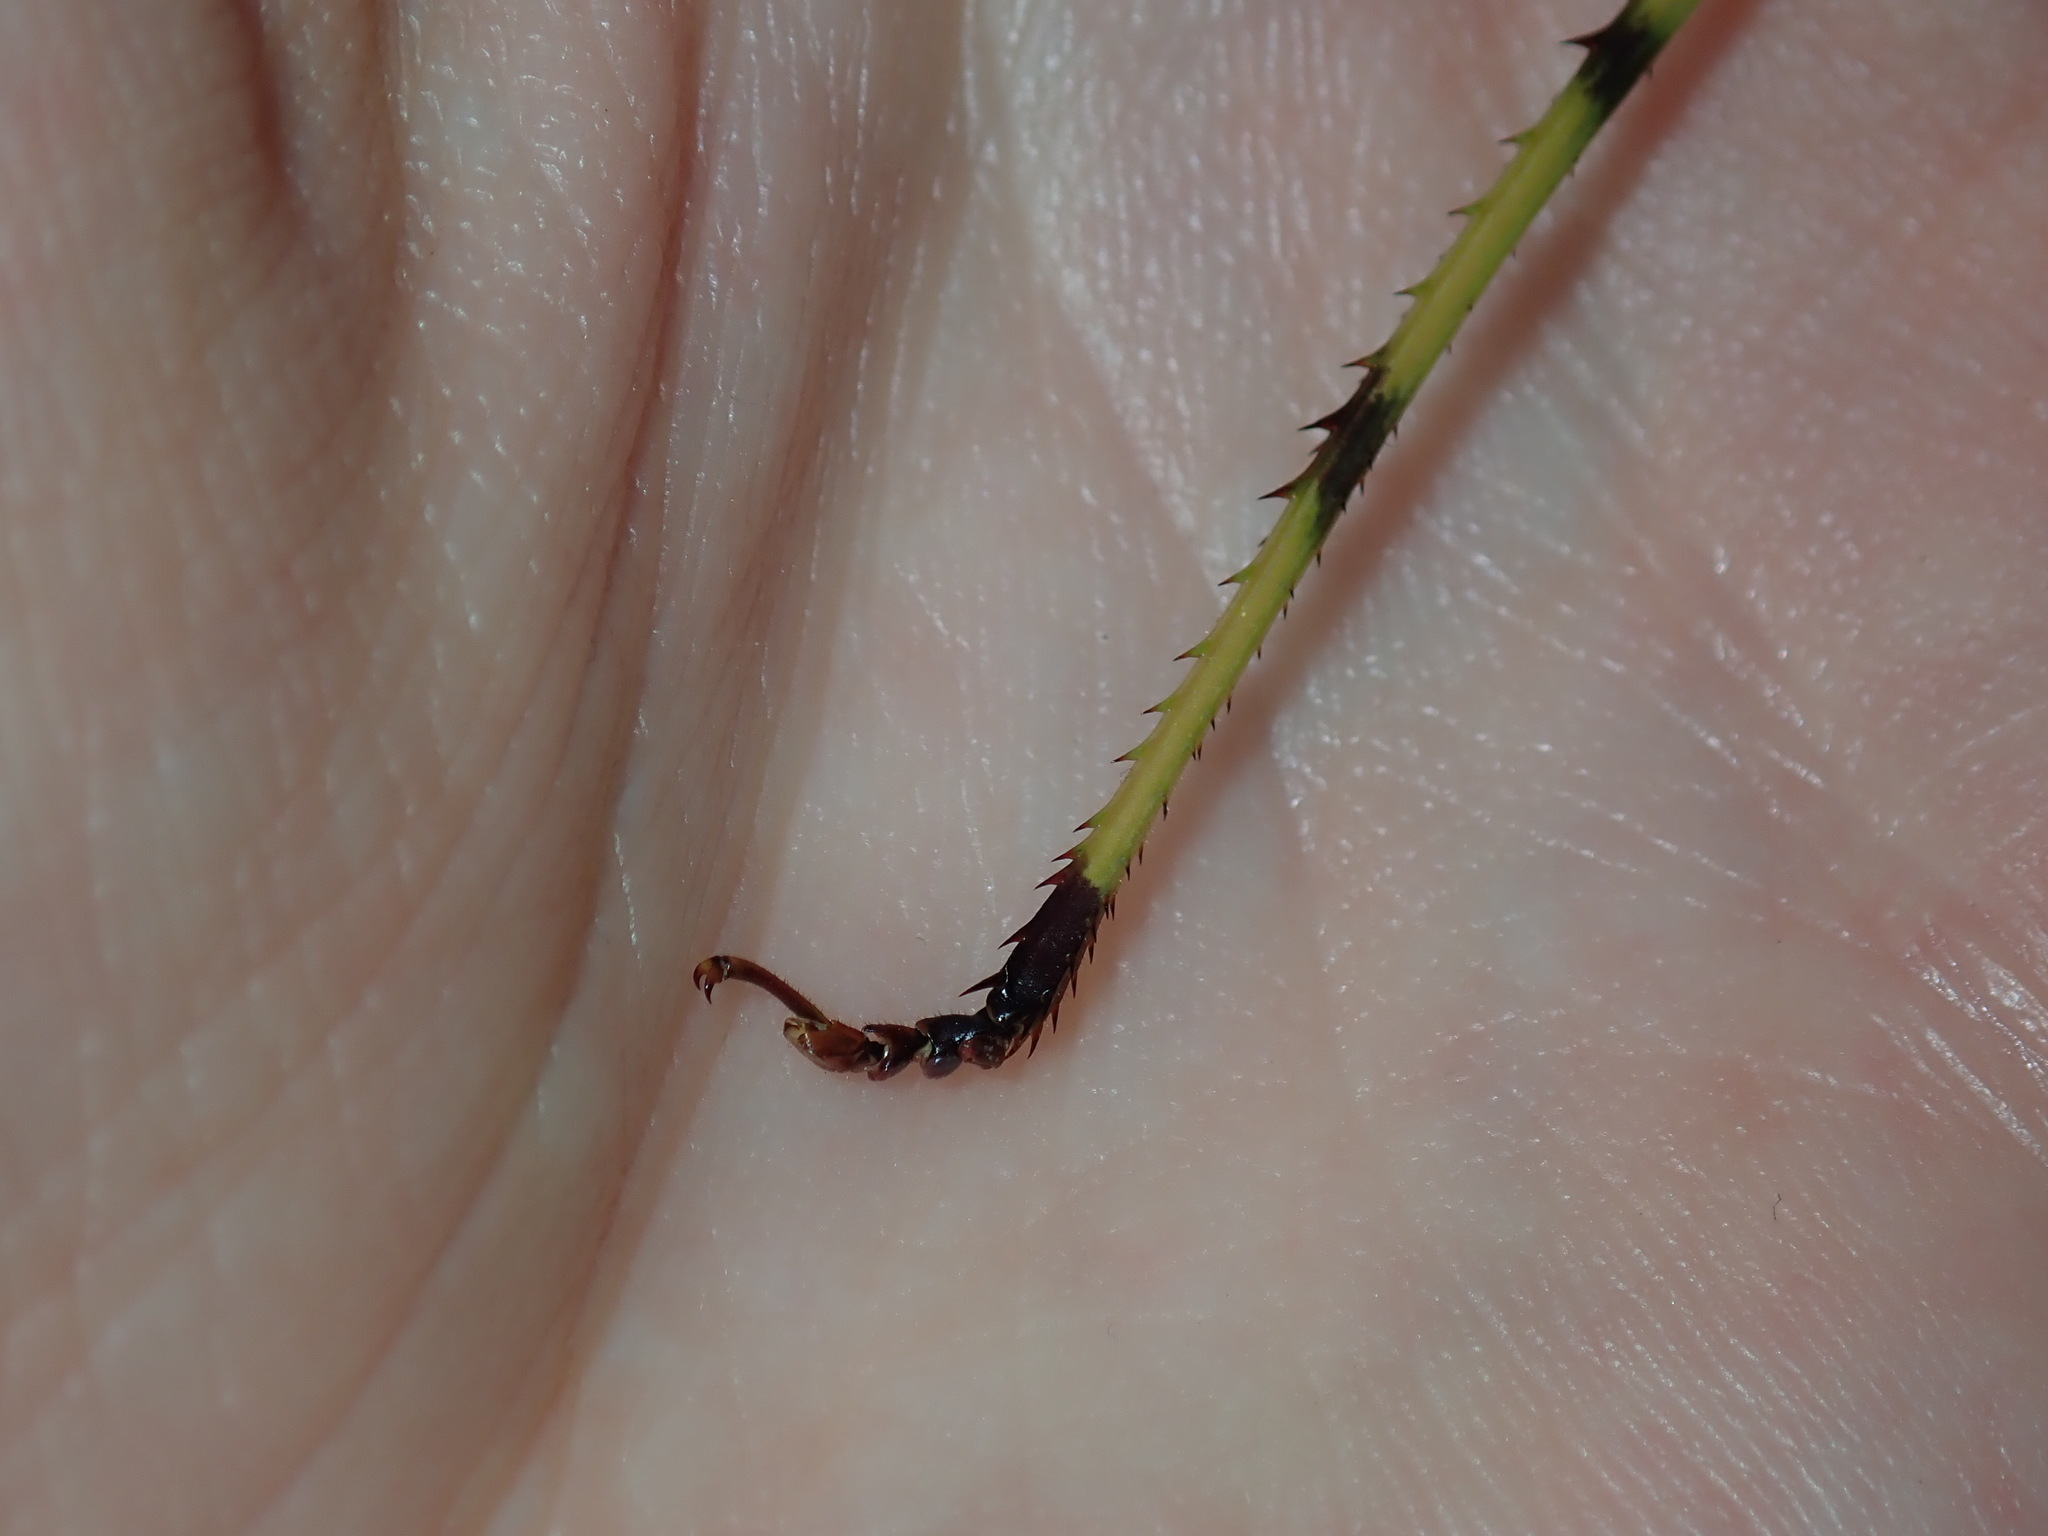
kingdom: Animalia
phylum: Arthropoda
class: Insecta
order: Orthoptera
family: Tettigoniidae
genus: Ephippitytha
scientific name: Ephippitytha froggatti
